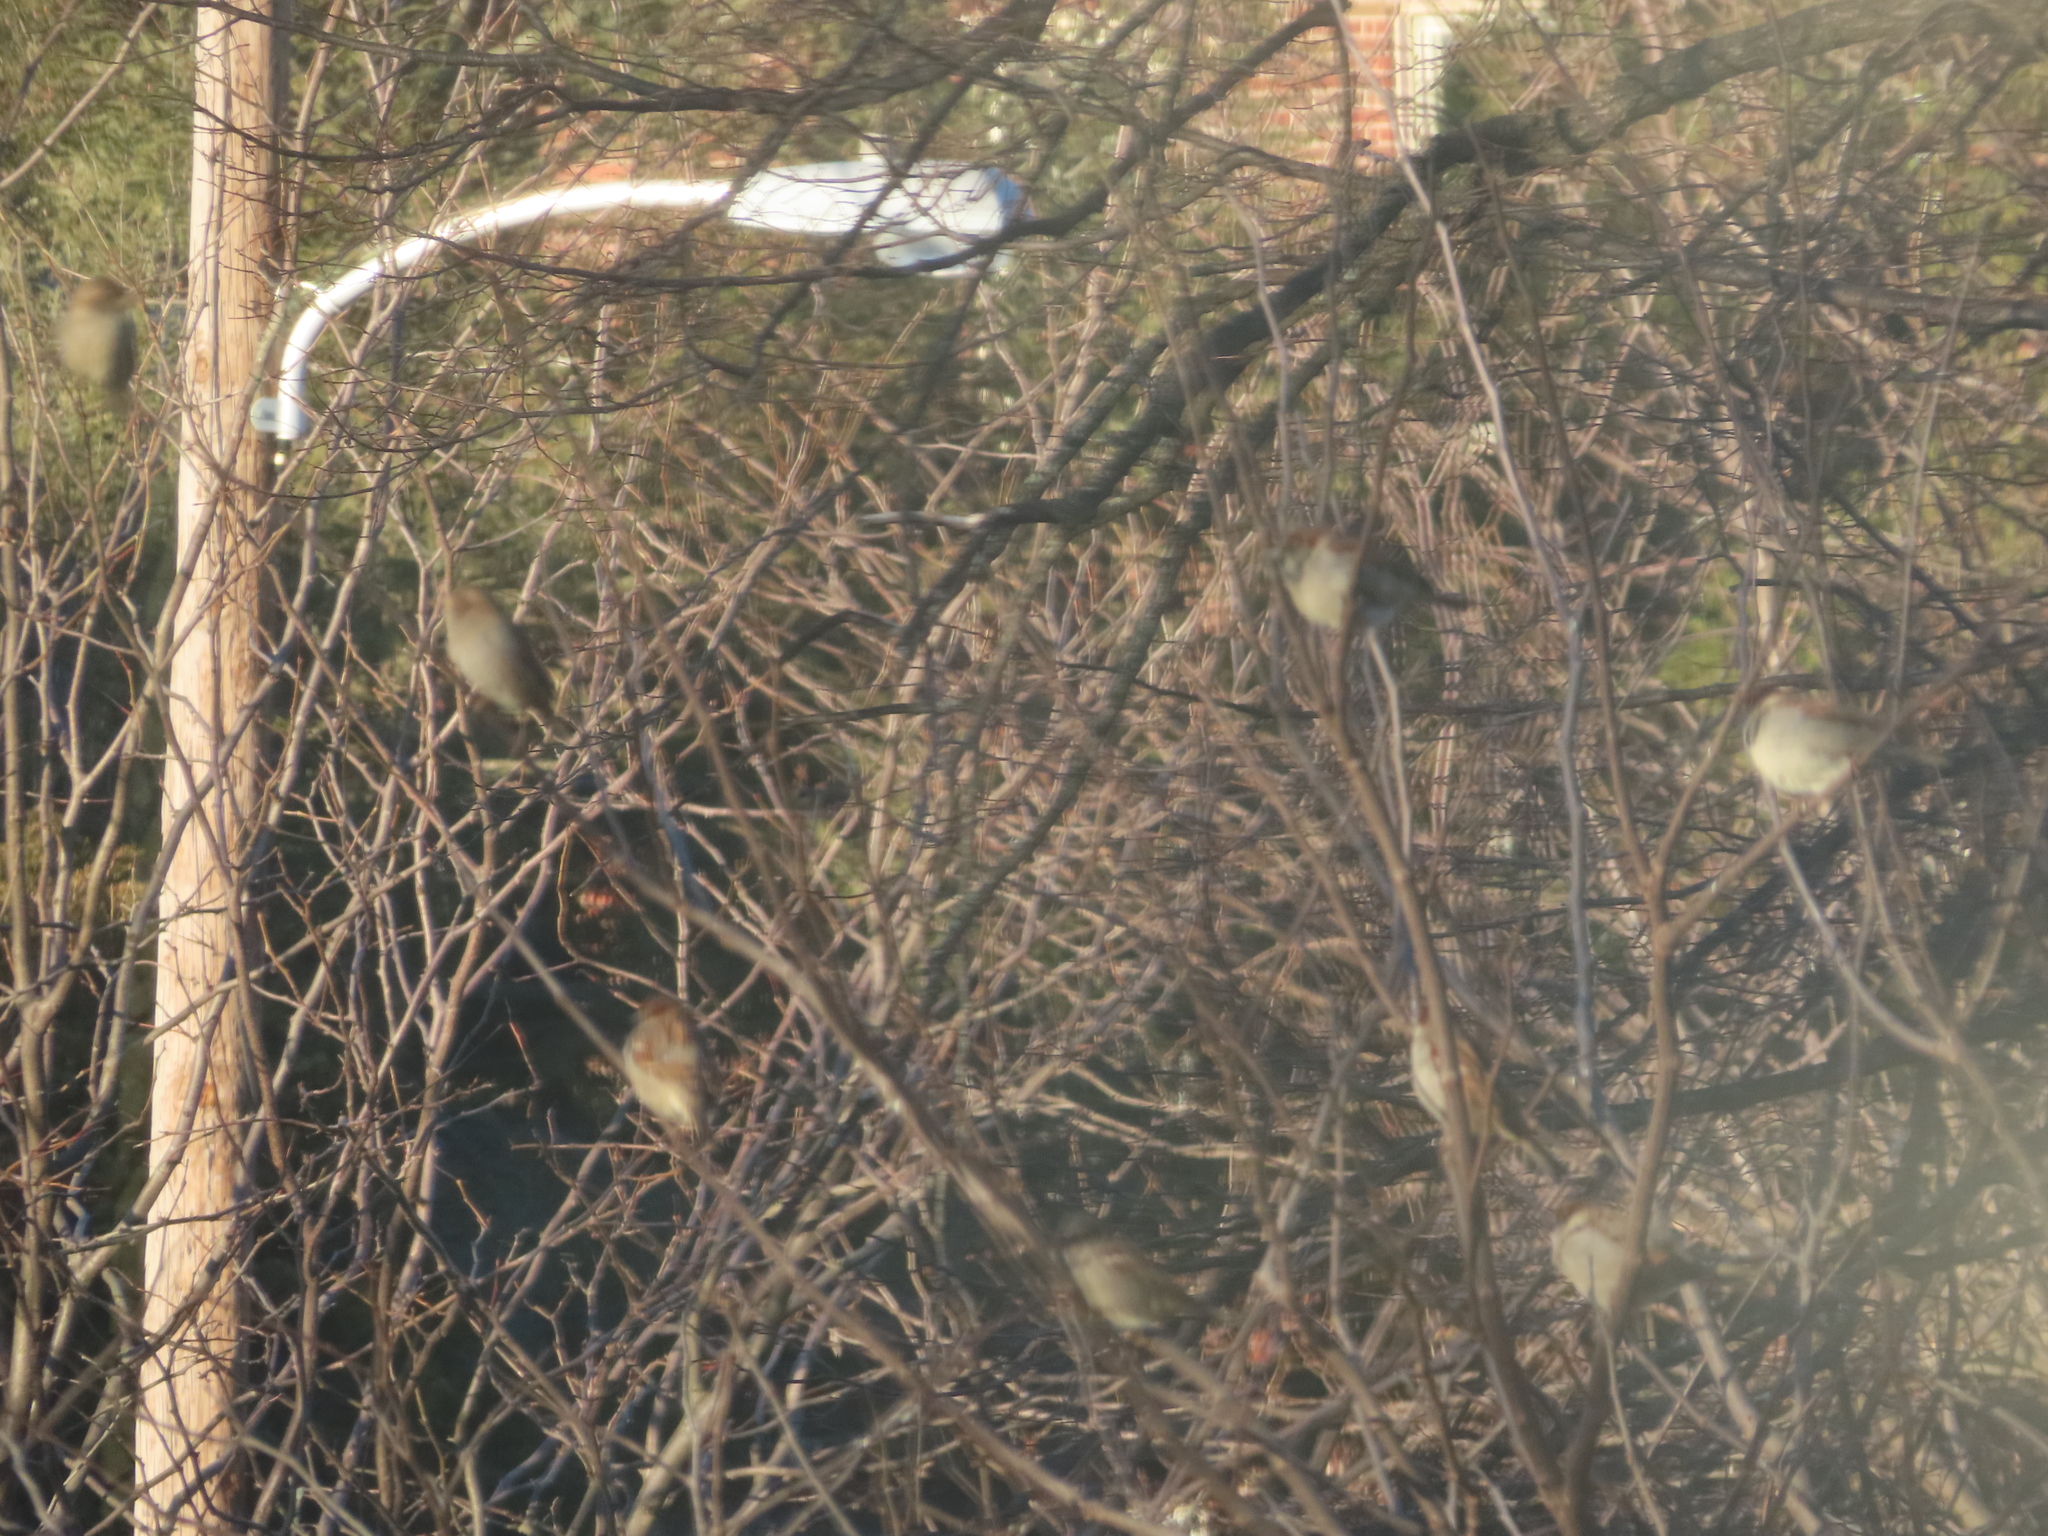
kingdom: Animalia
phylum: Chordata
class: Aves
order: Passeriformes
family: Passeridae
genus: Passer
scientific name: Passer domesticus
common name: House sparrow
